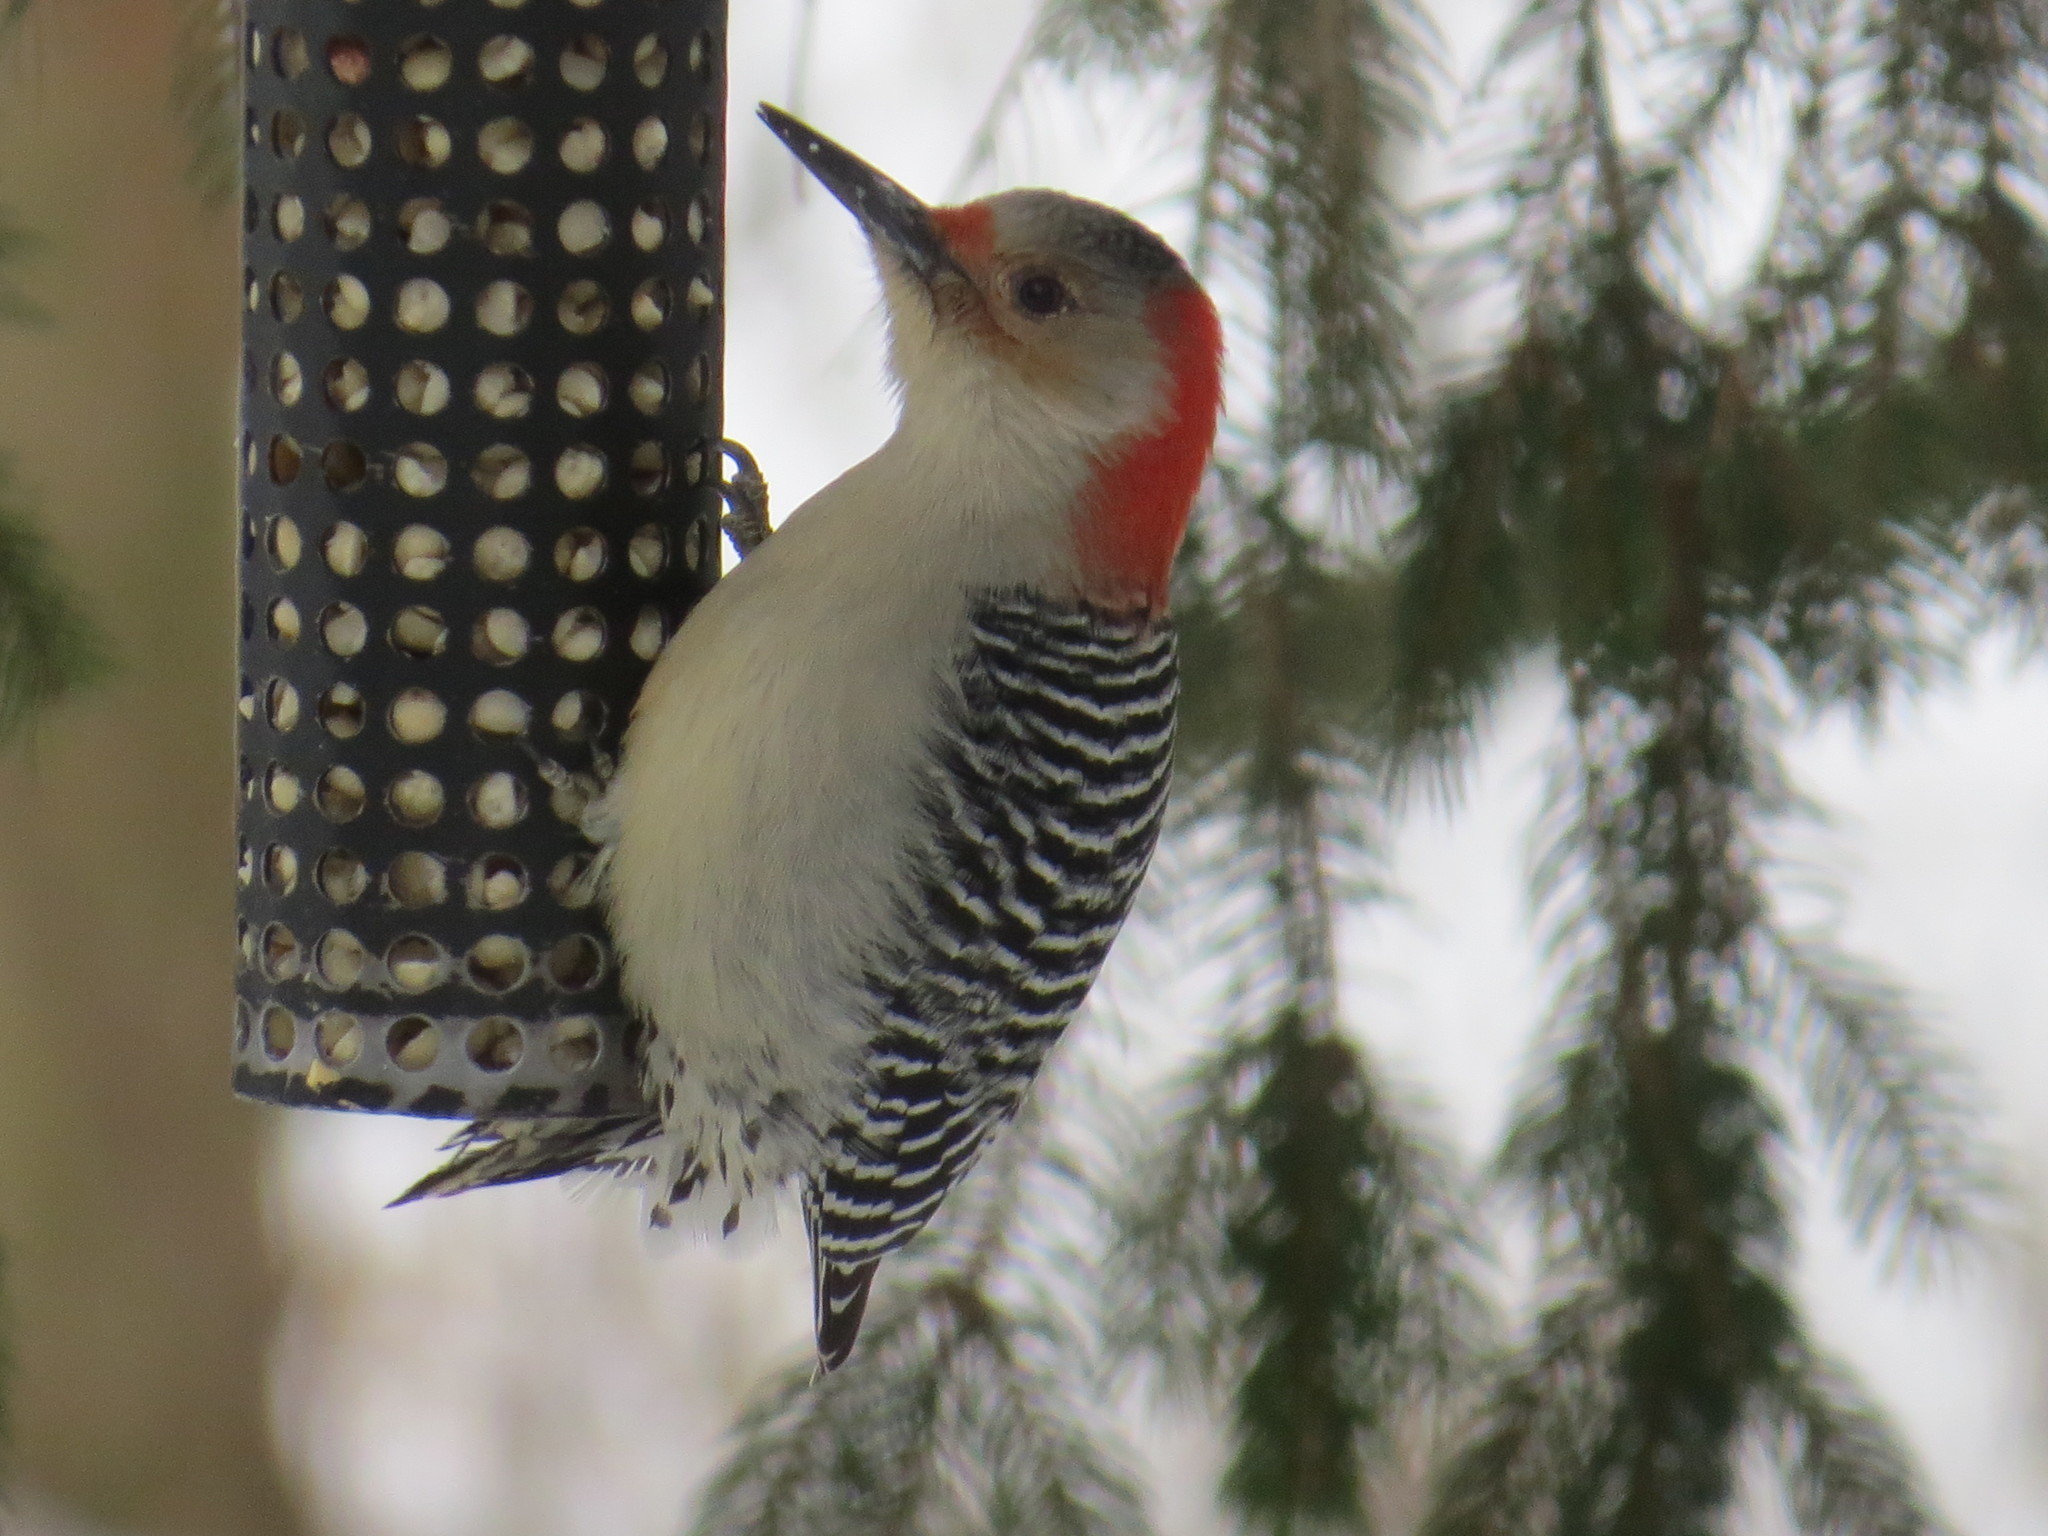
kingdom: Animalia
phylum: Chordata
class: Aves
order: Piciformes
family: Picidae
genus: Melanerpes
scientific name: Melanerpes carolinus
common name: Red-bellied woodpecker
